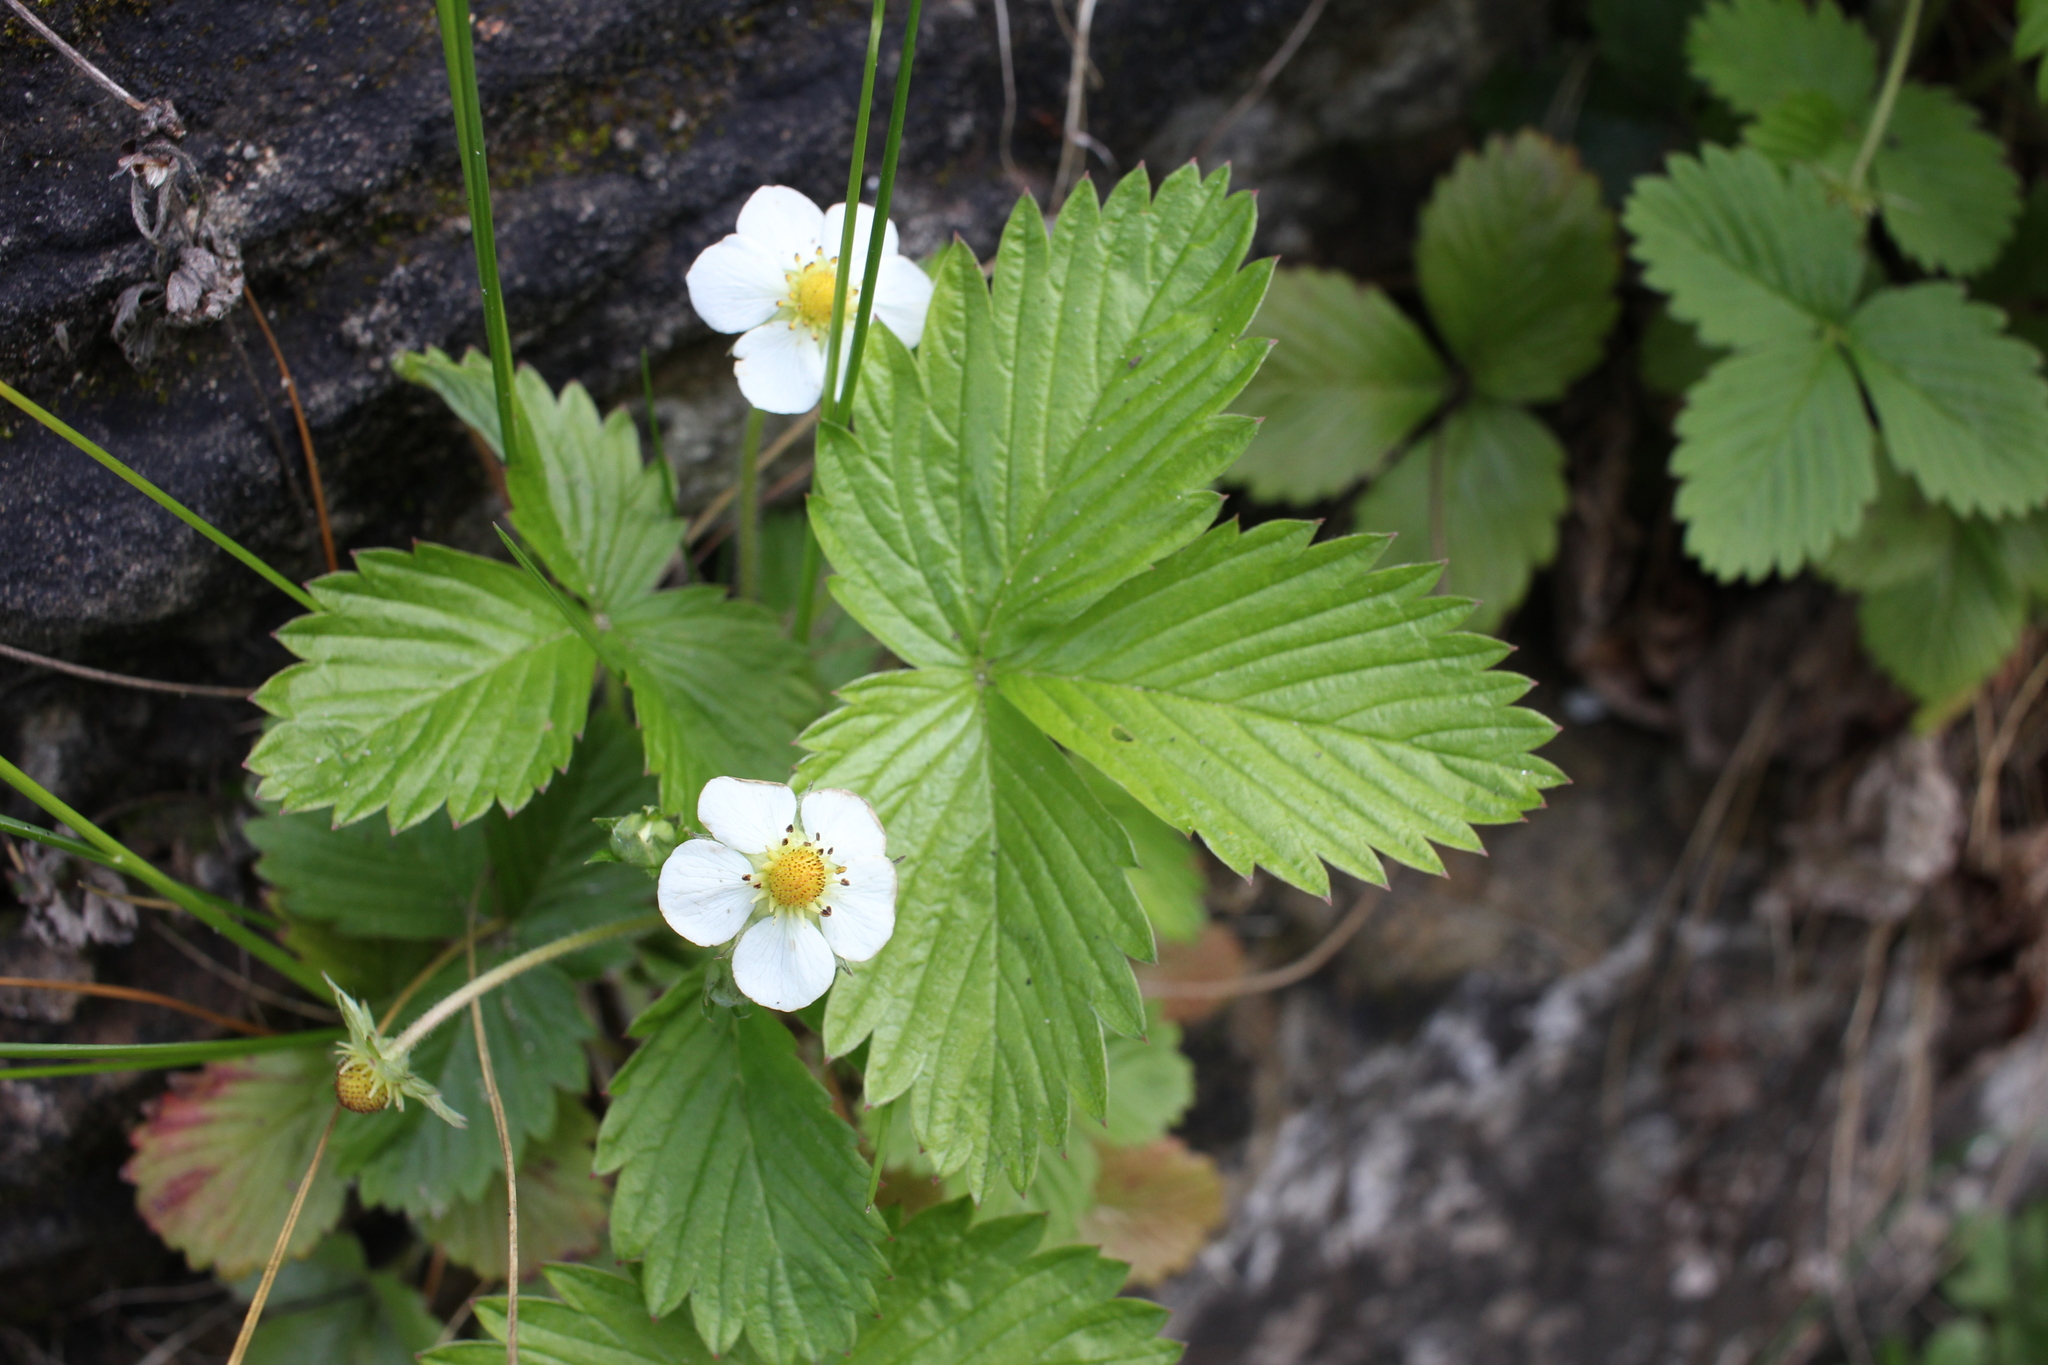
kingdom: Plantae
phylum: Tracheophyta
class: Magnoliopsida
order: Rosales
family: Rosaceae
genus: Fragaria
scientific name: Fragaria vesca
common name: Wild strawberry
